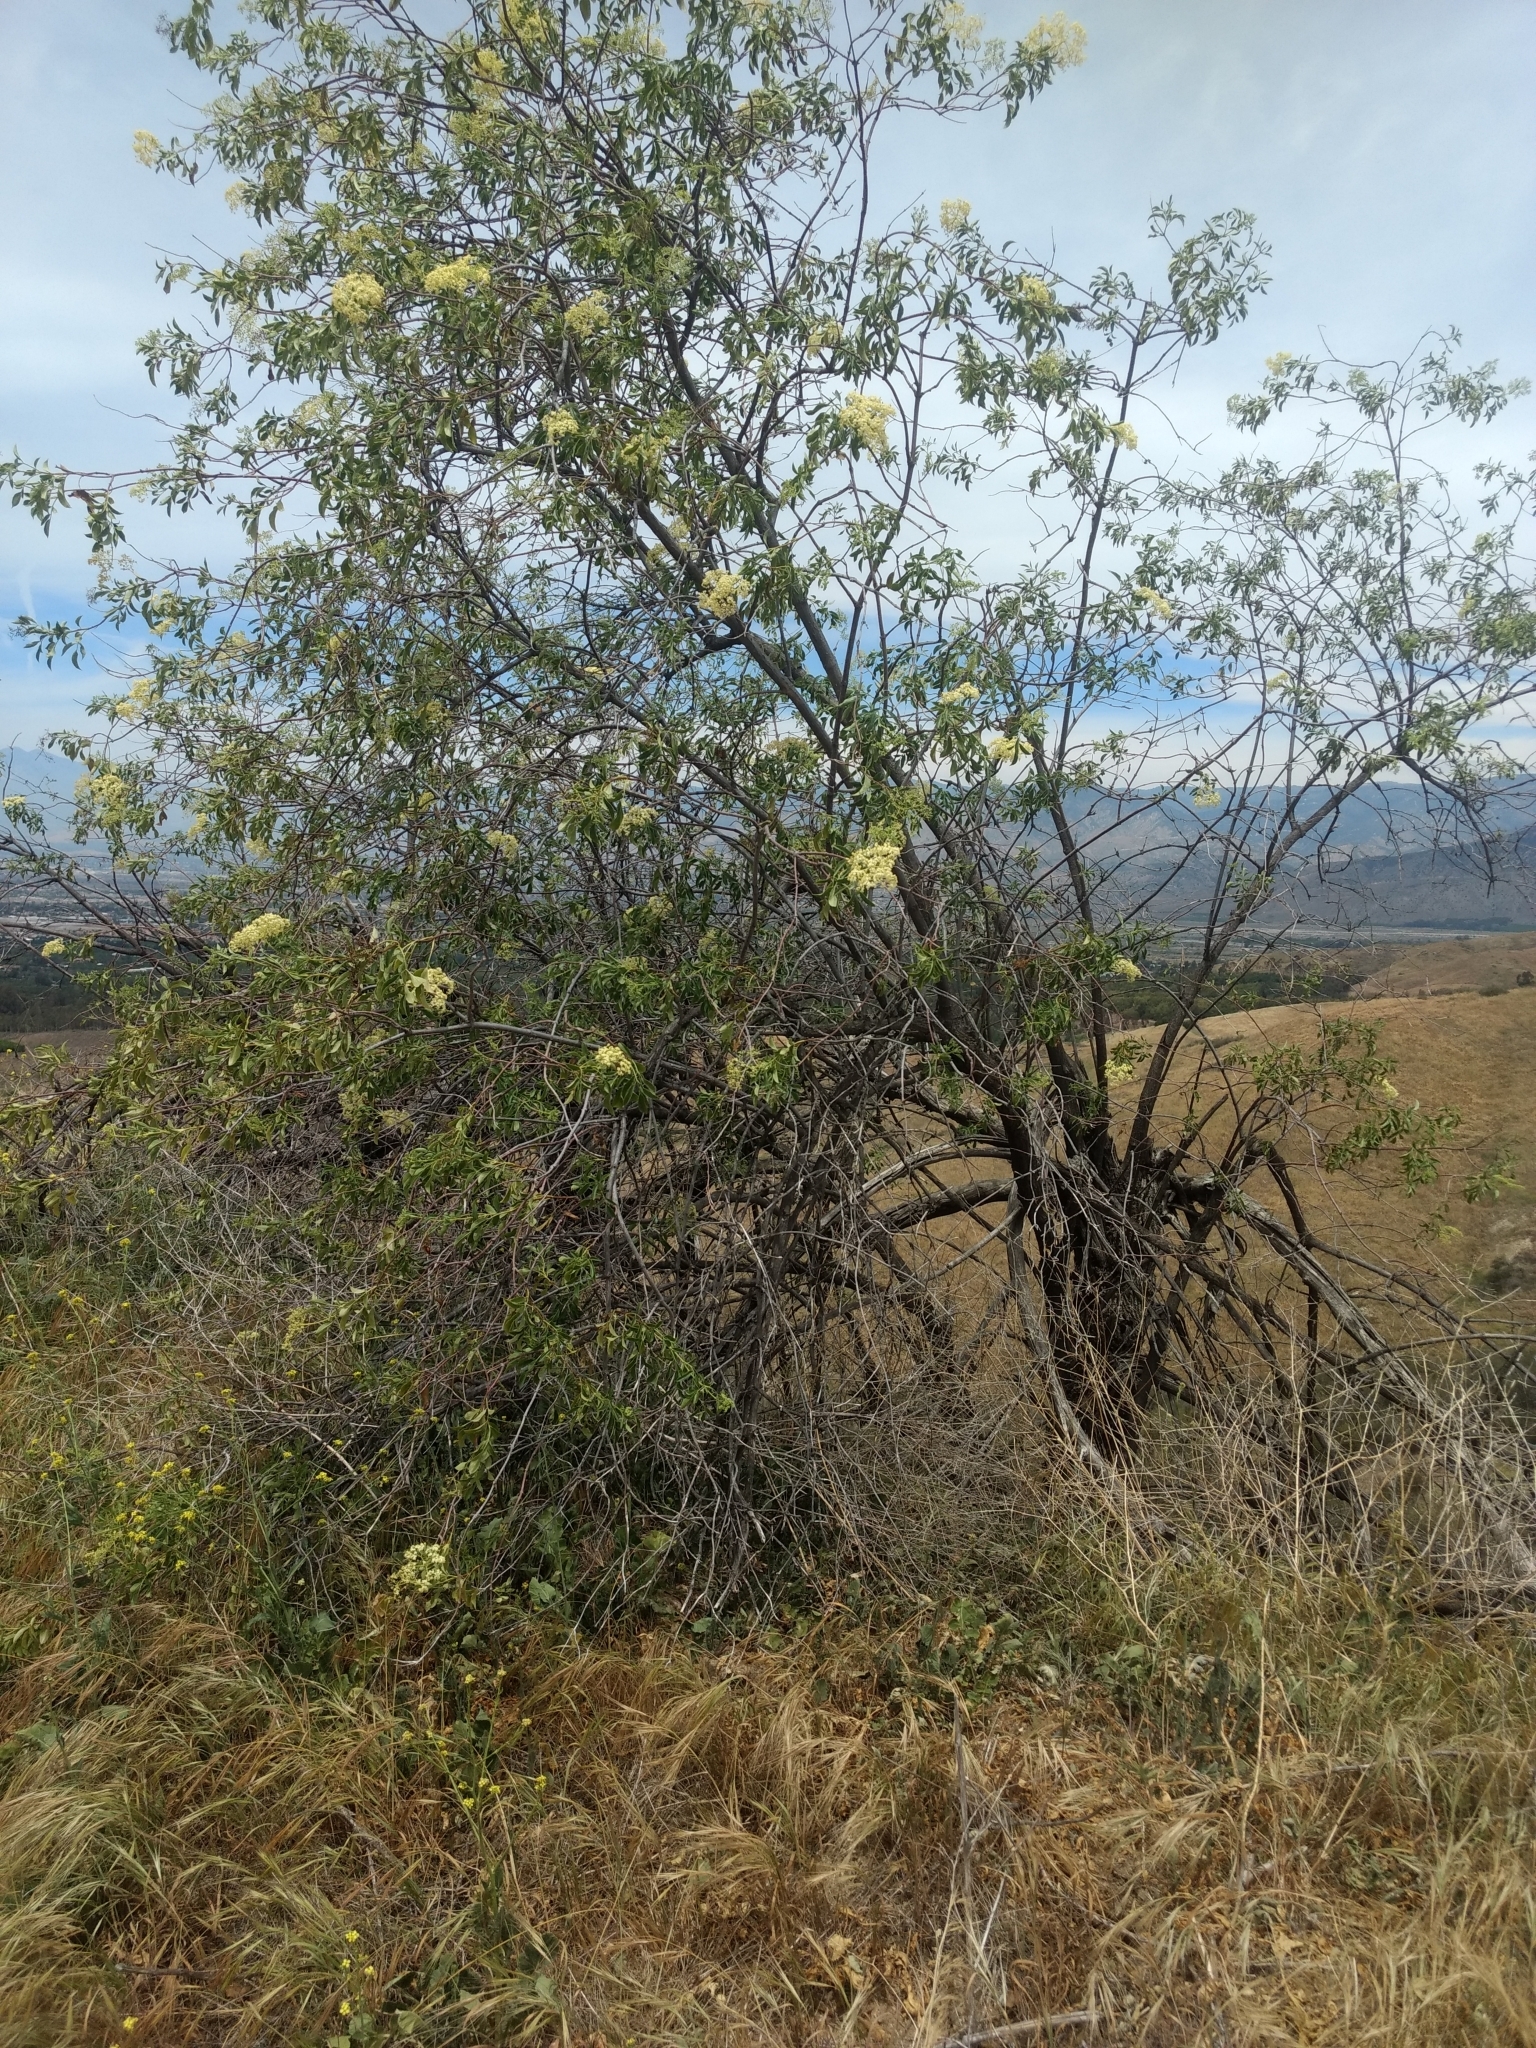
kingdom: Plantae
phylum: Tracheophyta
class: Magnoliopsida
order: Dipsacales
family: Viburnaceae
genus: Sambucus
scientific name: Sambucus cerulea
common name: Blue elder
